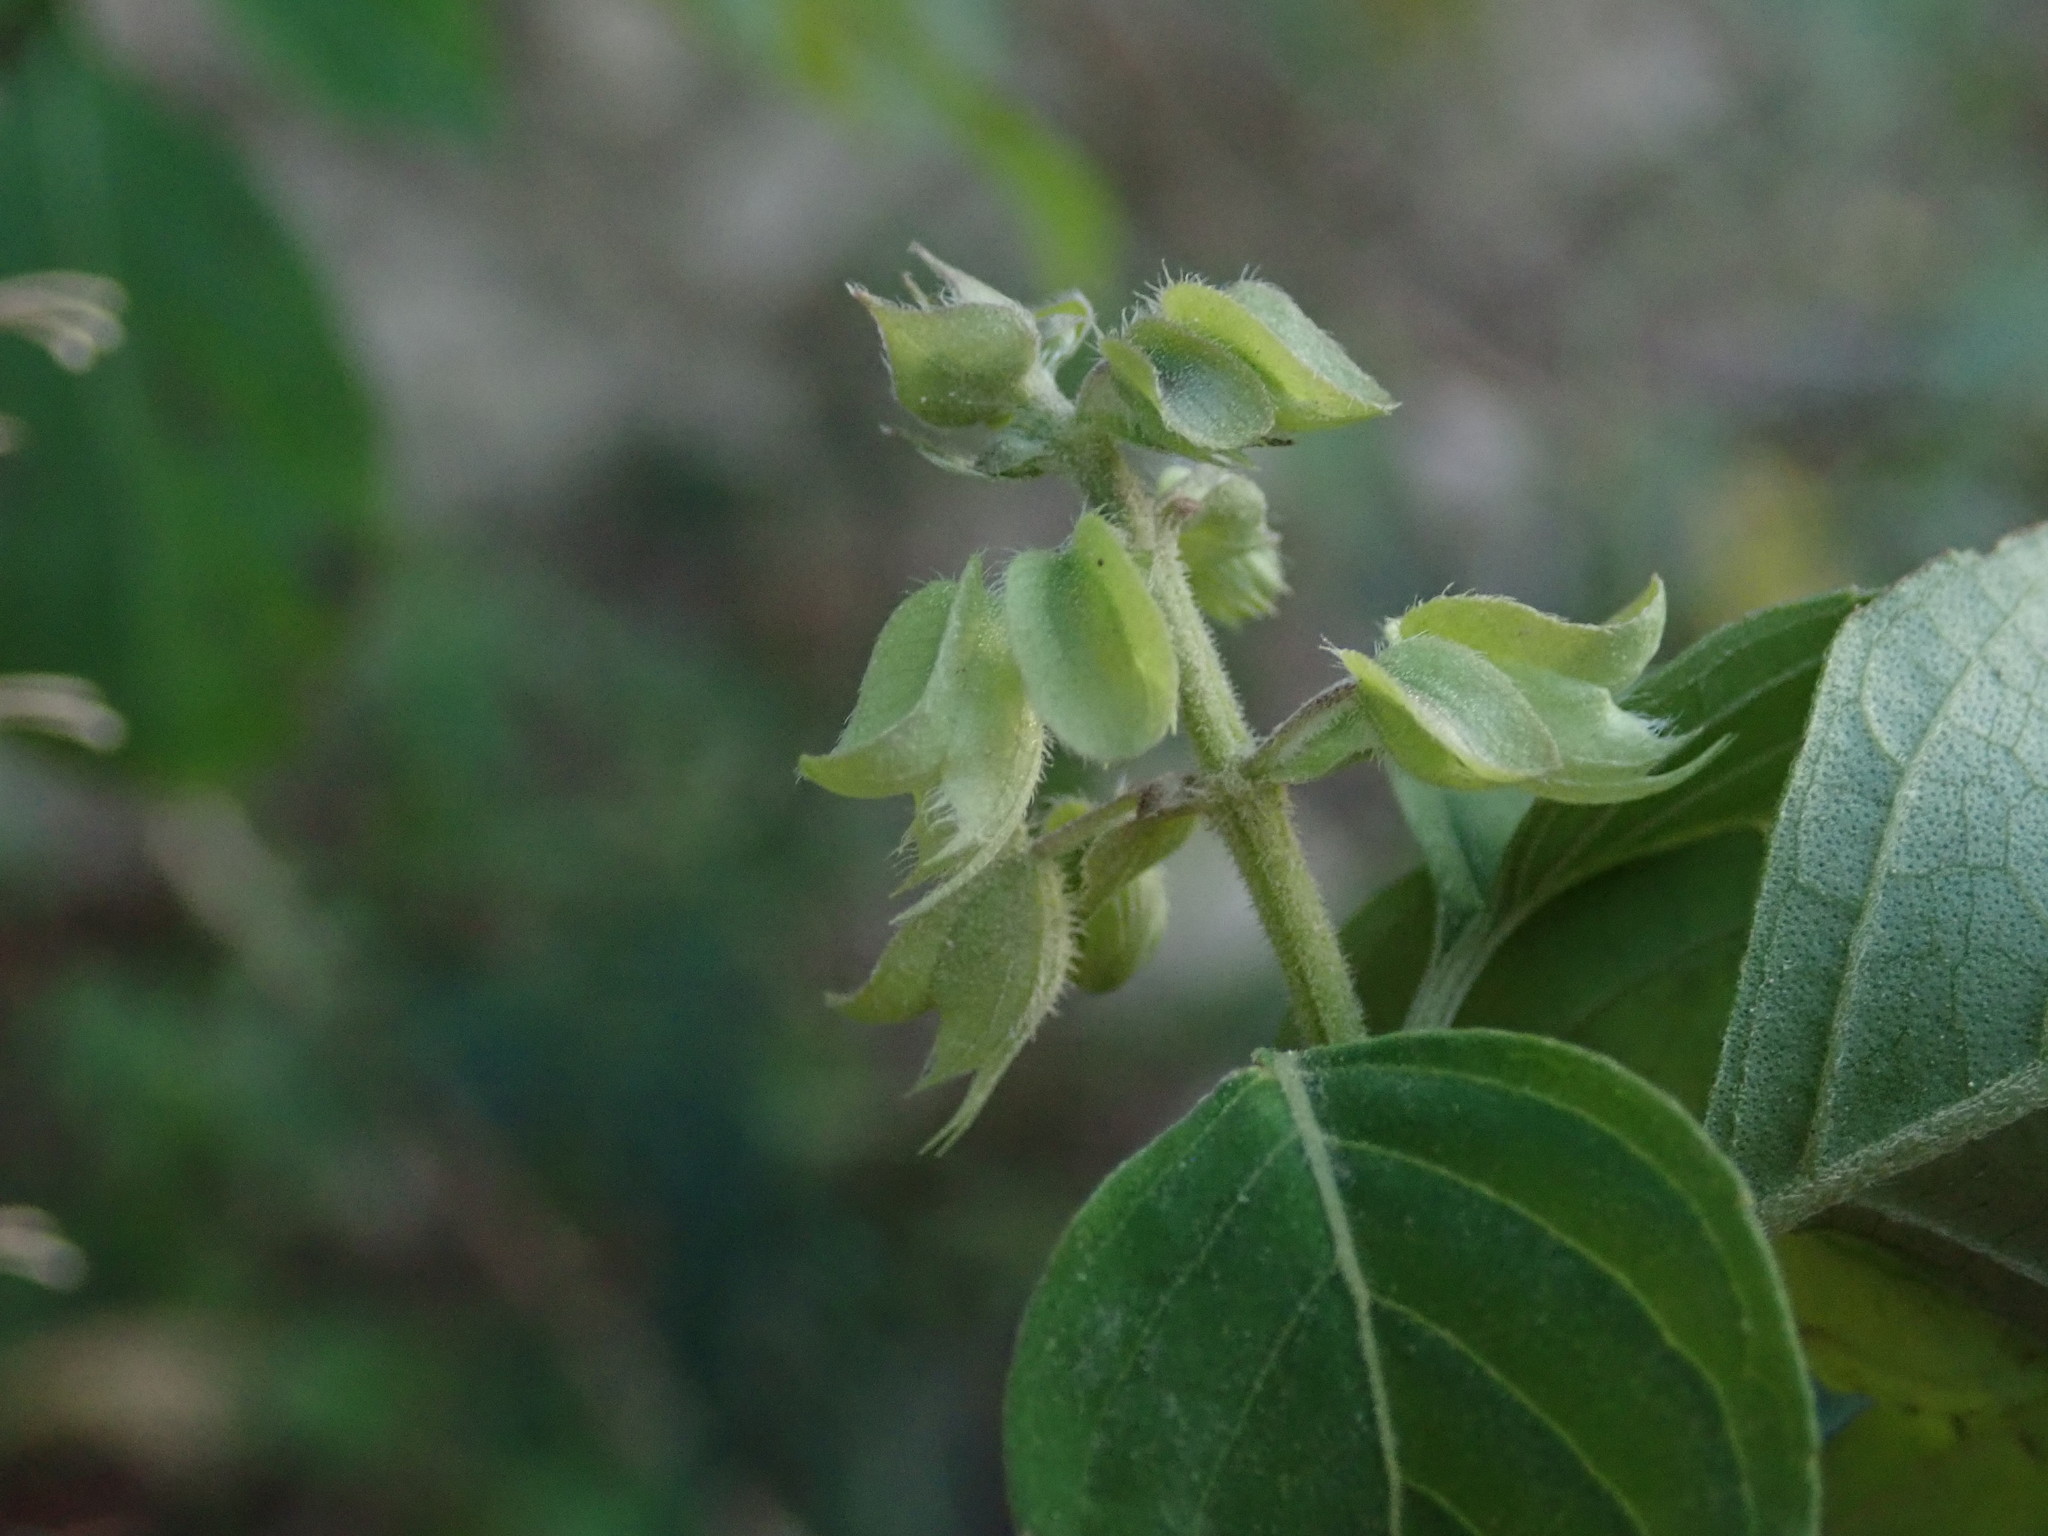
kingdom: Plantae
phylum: Tracheophyta
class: Magnoliopsida
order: Lamiales
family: Lamiaceae
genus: Ocimum
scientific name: Ocimum campechianum
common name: Mosquito basil
